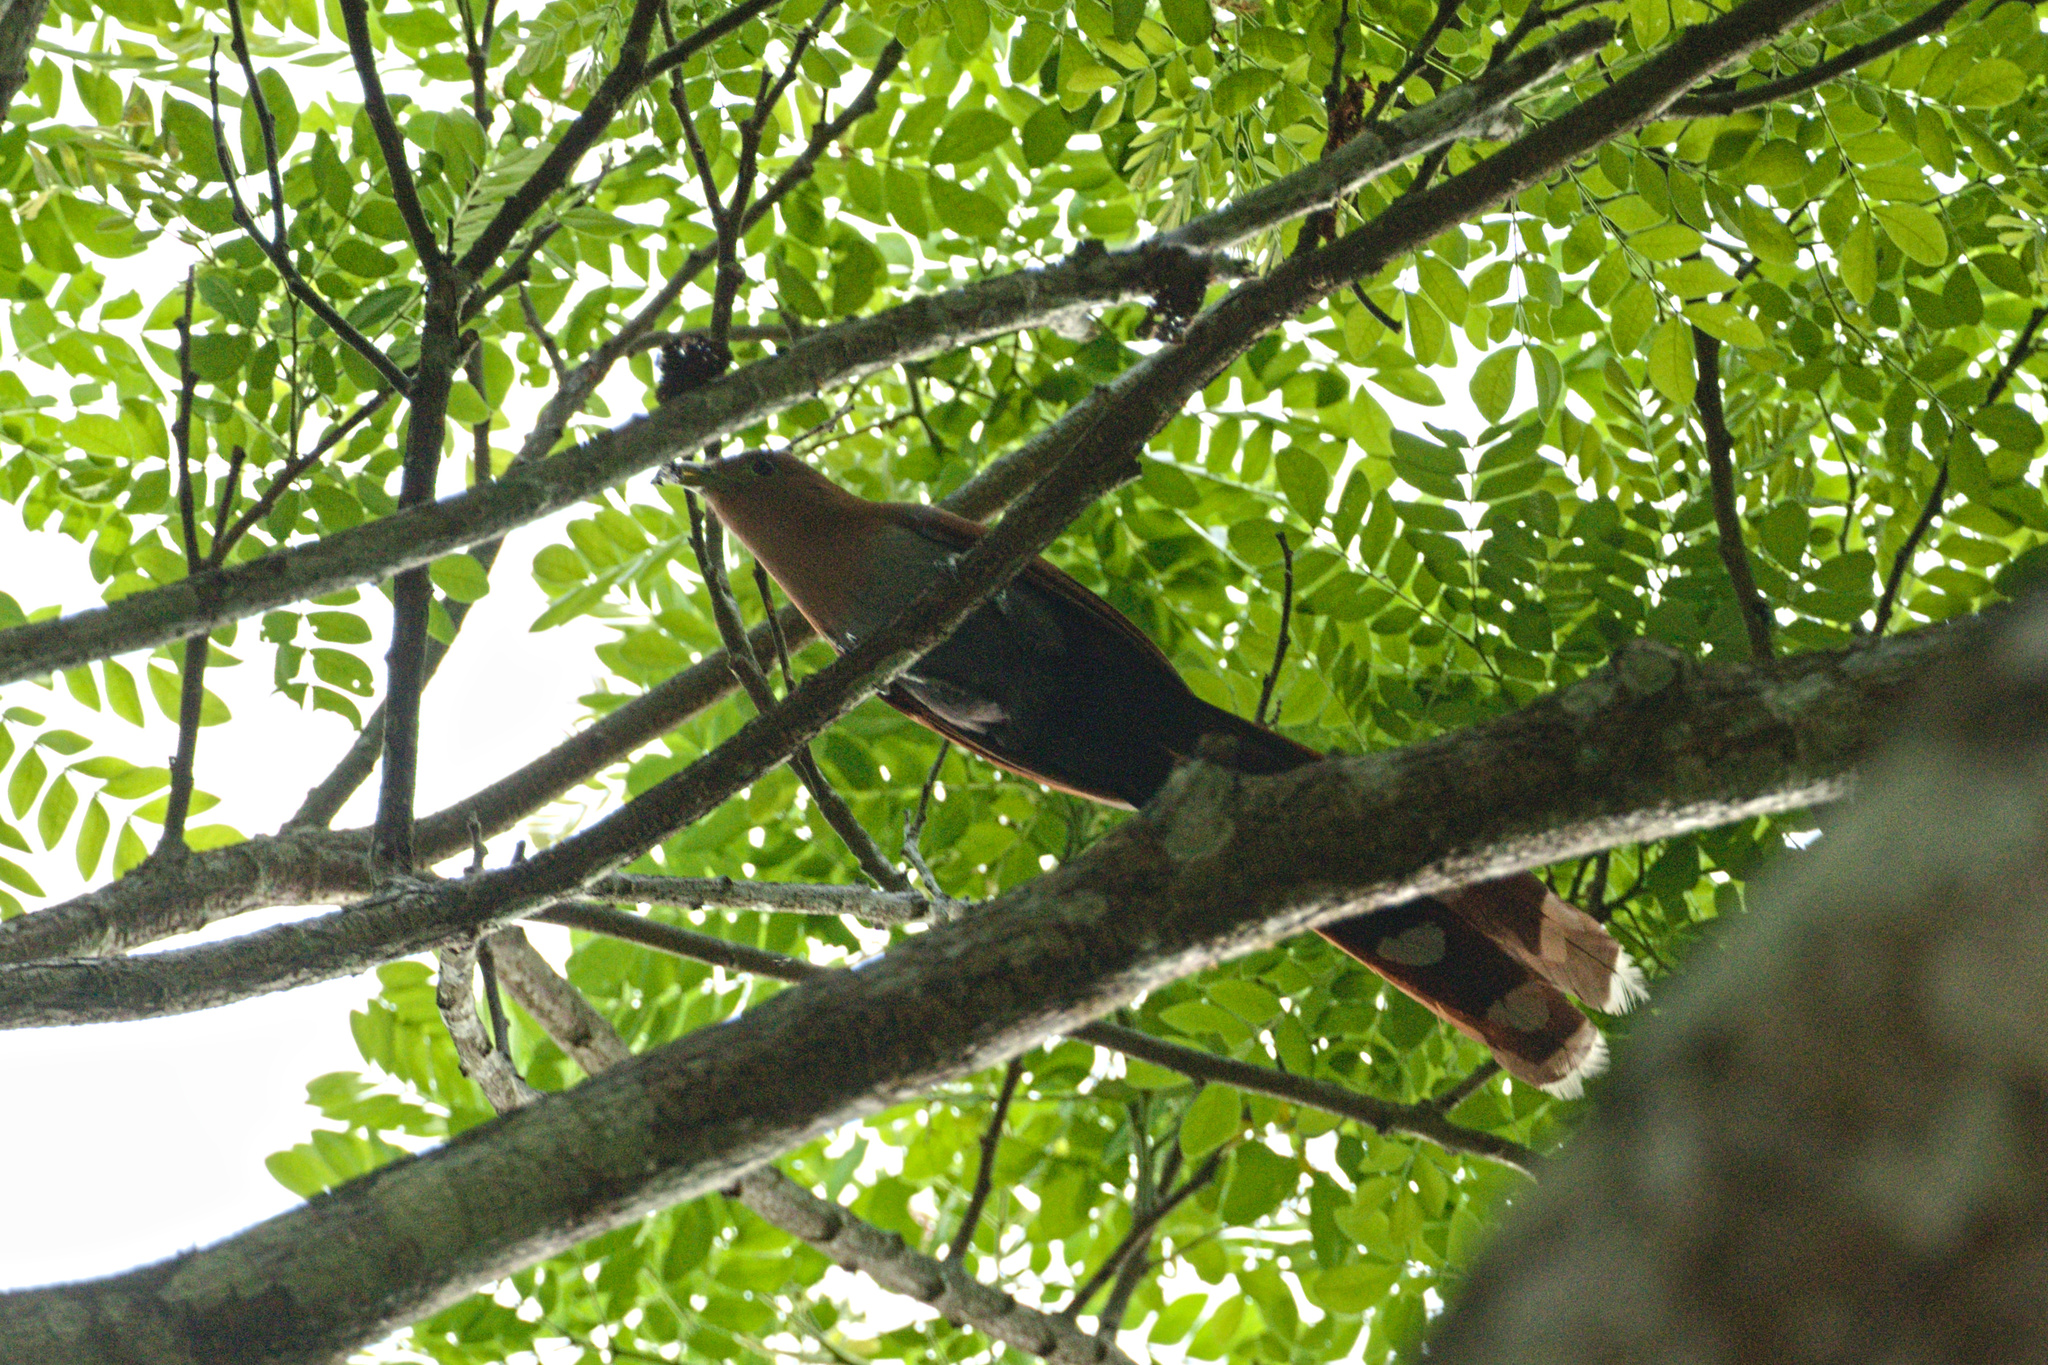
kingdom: Animalia
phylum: Chordata
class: Aves
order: Cuculiformes
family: Cuculidae
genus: Piaya
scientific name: Piaya cayana
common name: Squirrel cuckoo
